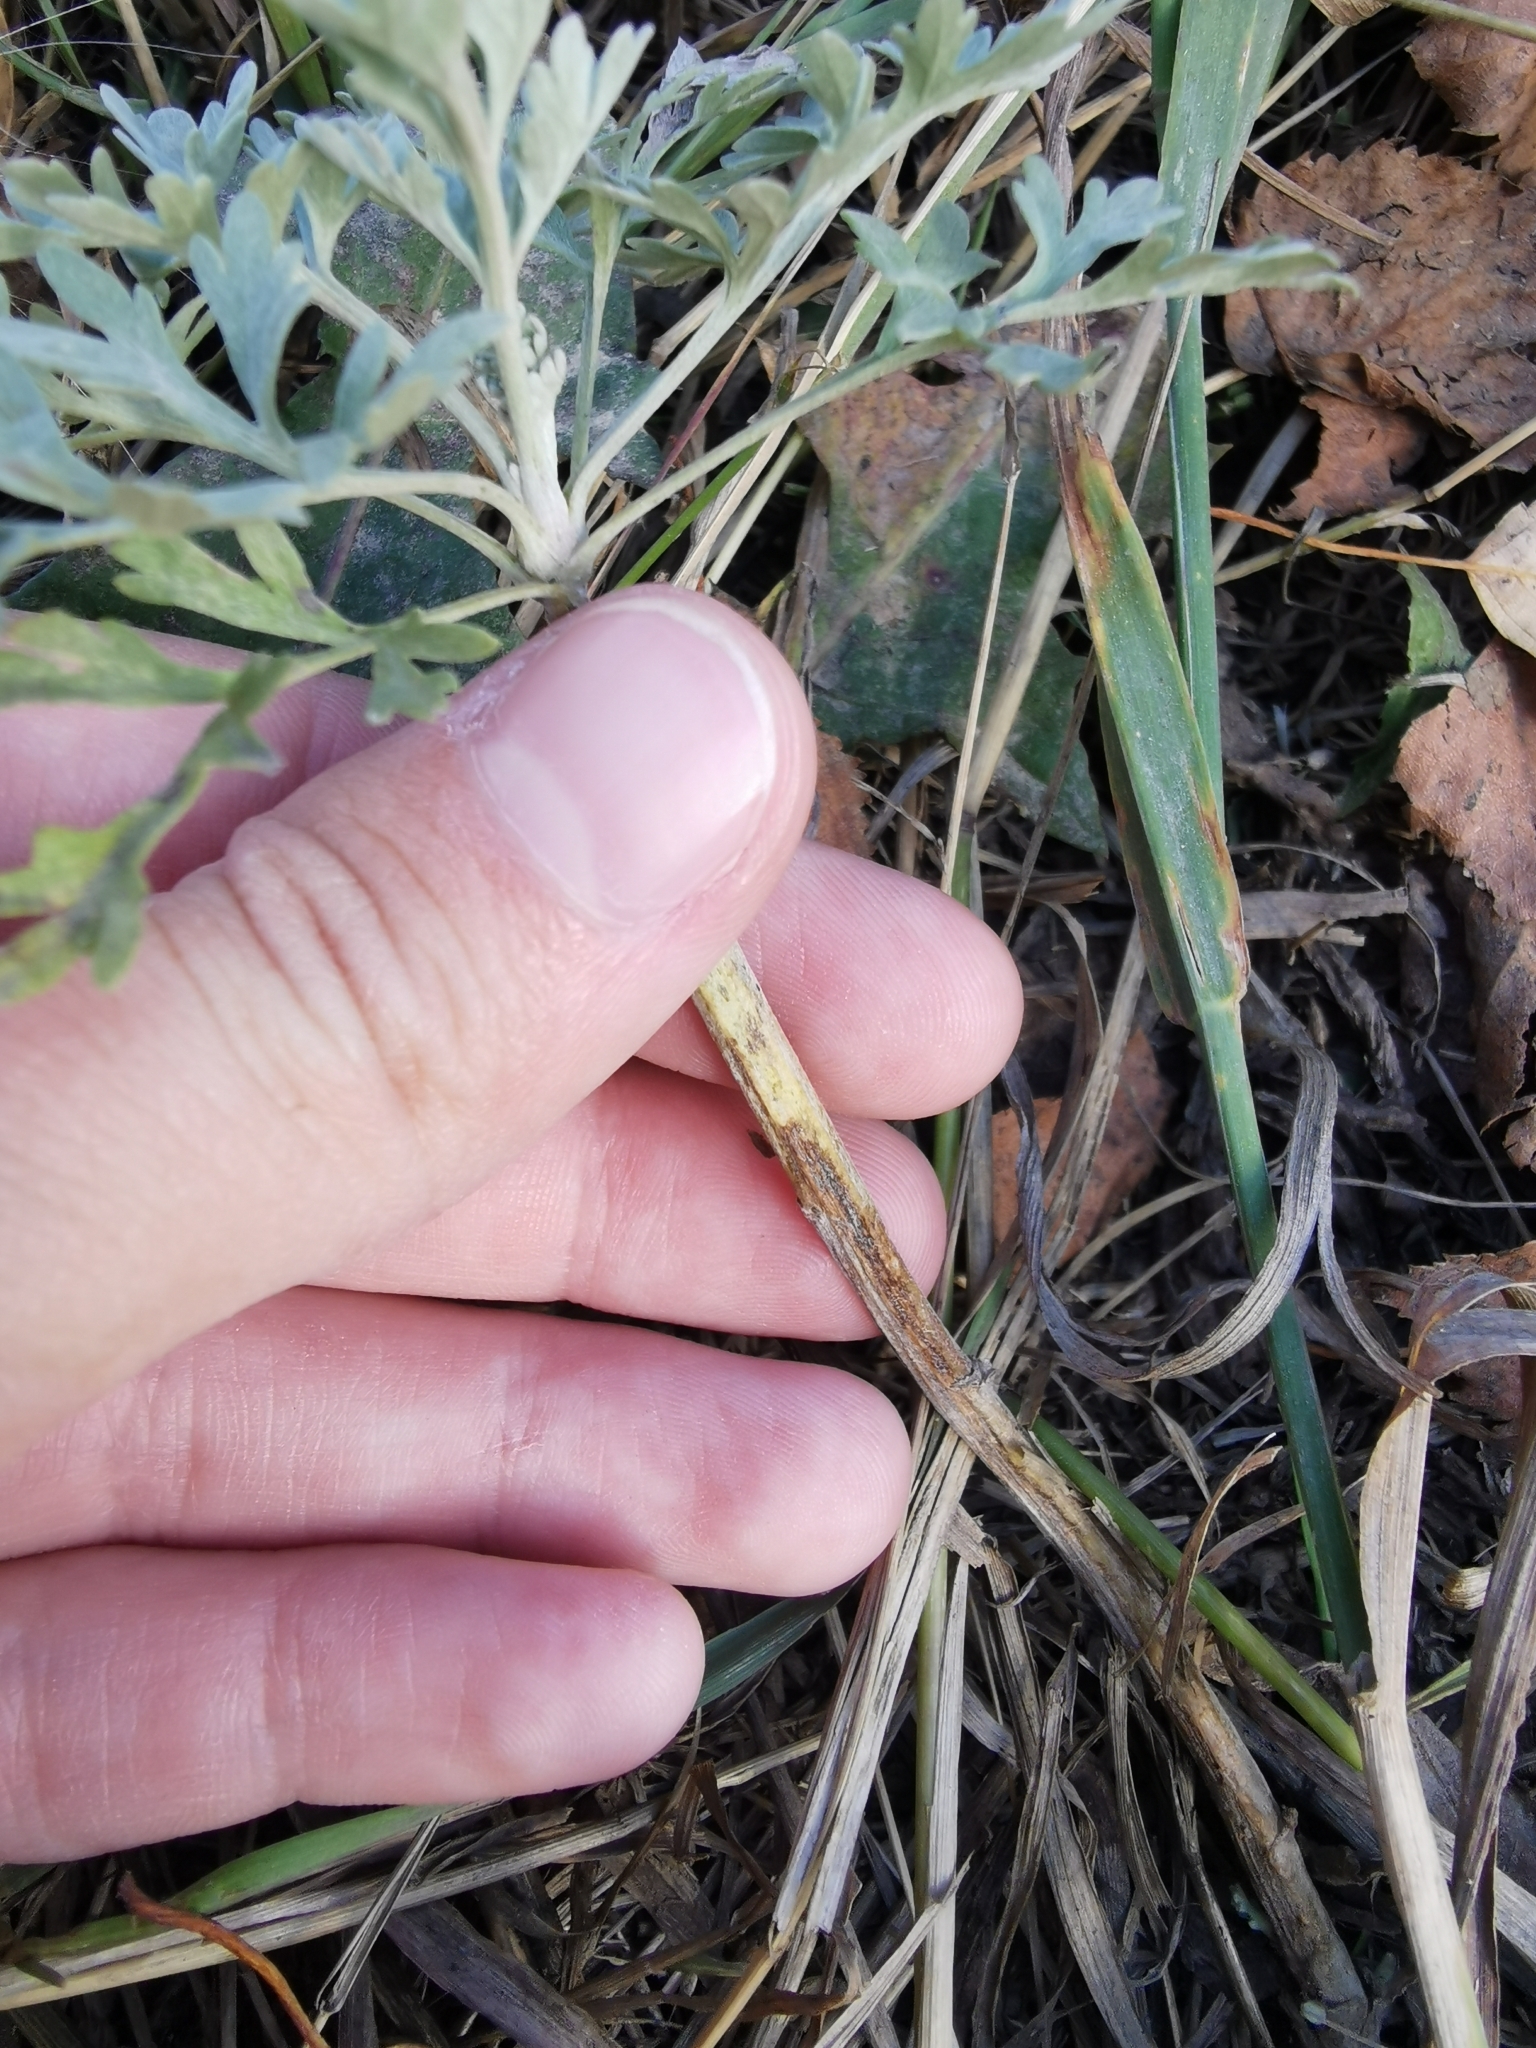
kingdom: Plantae
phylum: Tracheophyta
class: Magnoliopsida
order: Asterales
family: Asteraceae
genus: Artemisia
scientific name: Artemisia absinthium
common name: Wormwood
